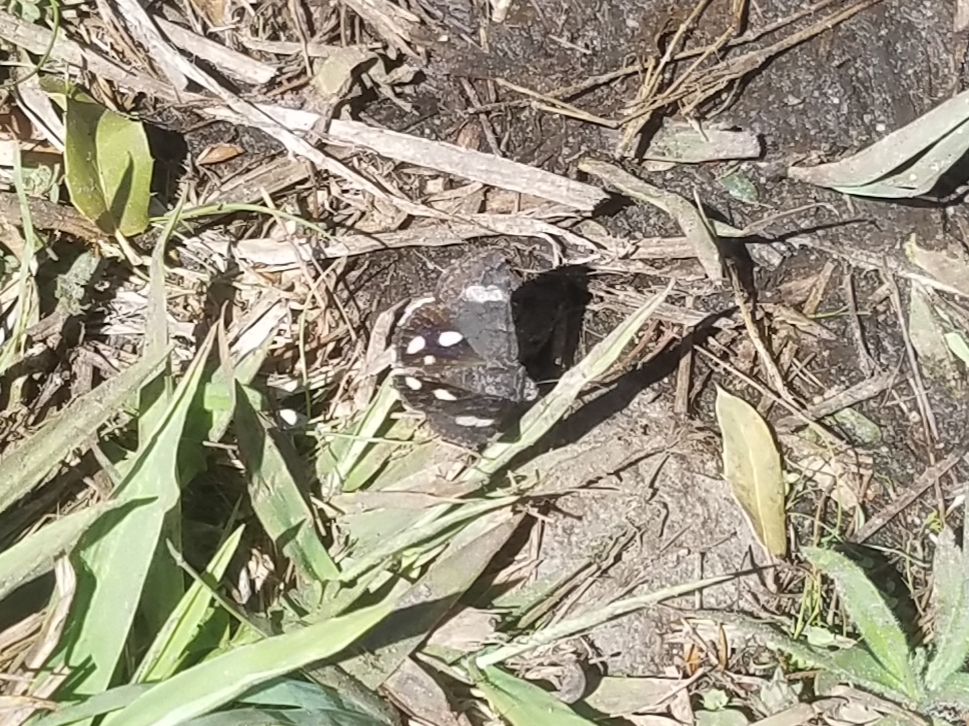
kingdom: Animalia
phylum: Arthropoda
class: Insecta
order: Lepidoptera
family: Erebidae
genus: Litocala
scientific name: Litocala sexsignata
